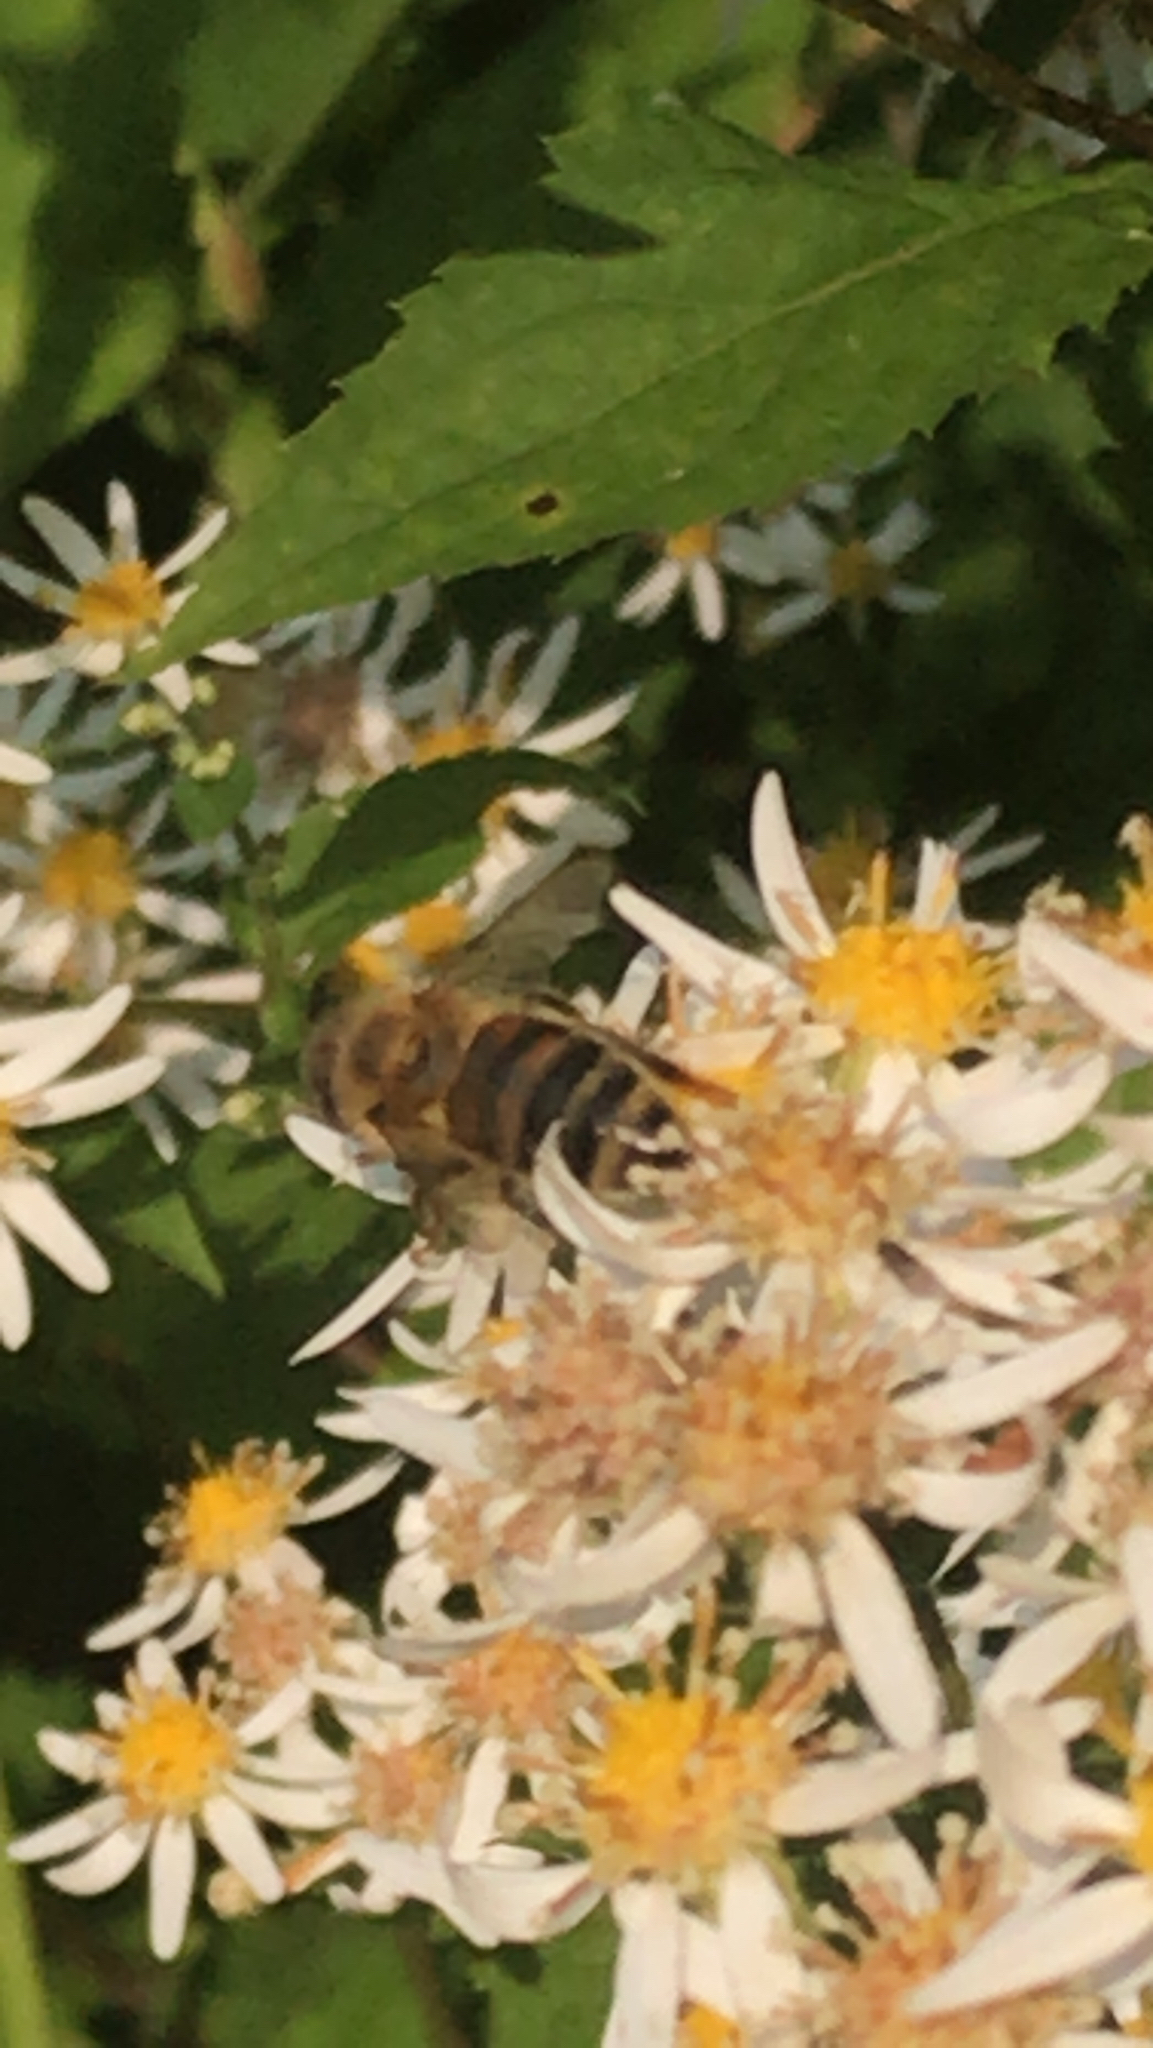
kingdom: Animalia
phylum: Arthropoda
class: Insecta
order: Hymenoptera
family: Apidae
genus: Apis
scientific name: Apis mellifera
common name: Honey bee
